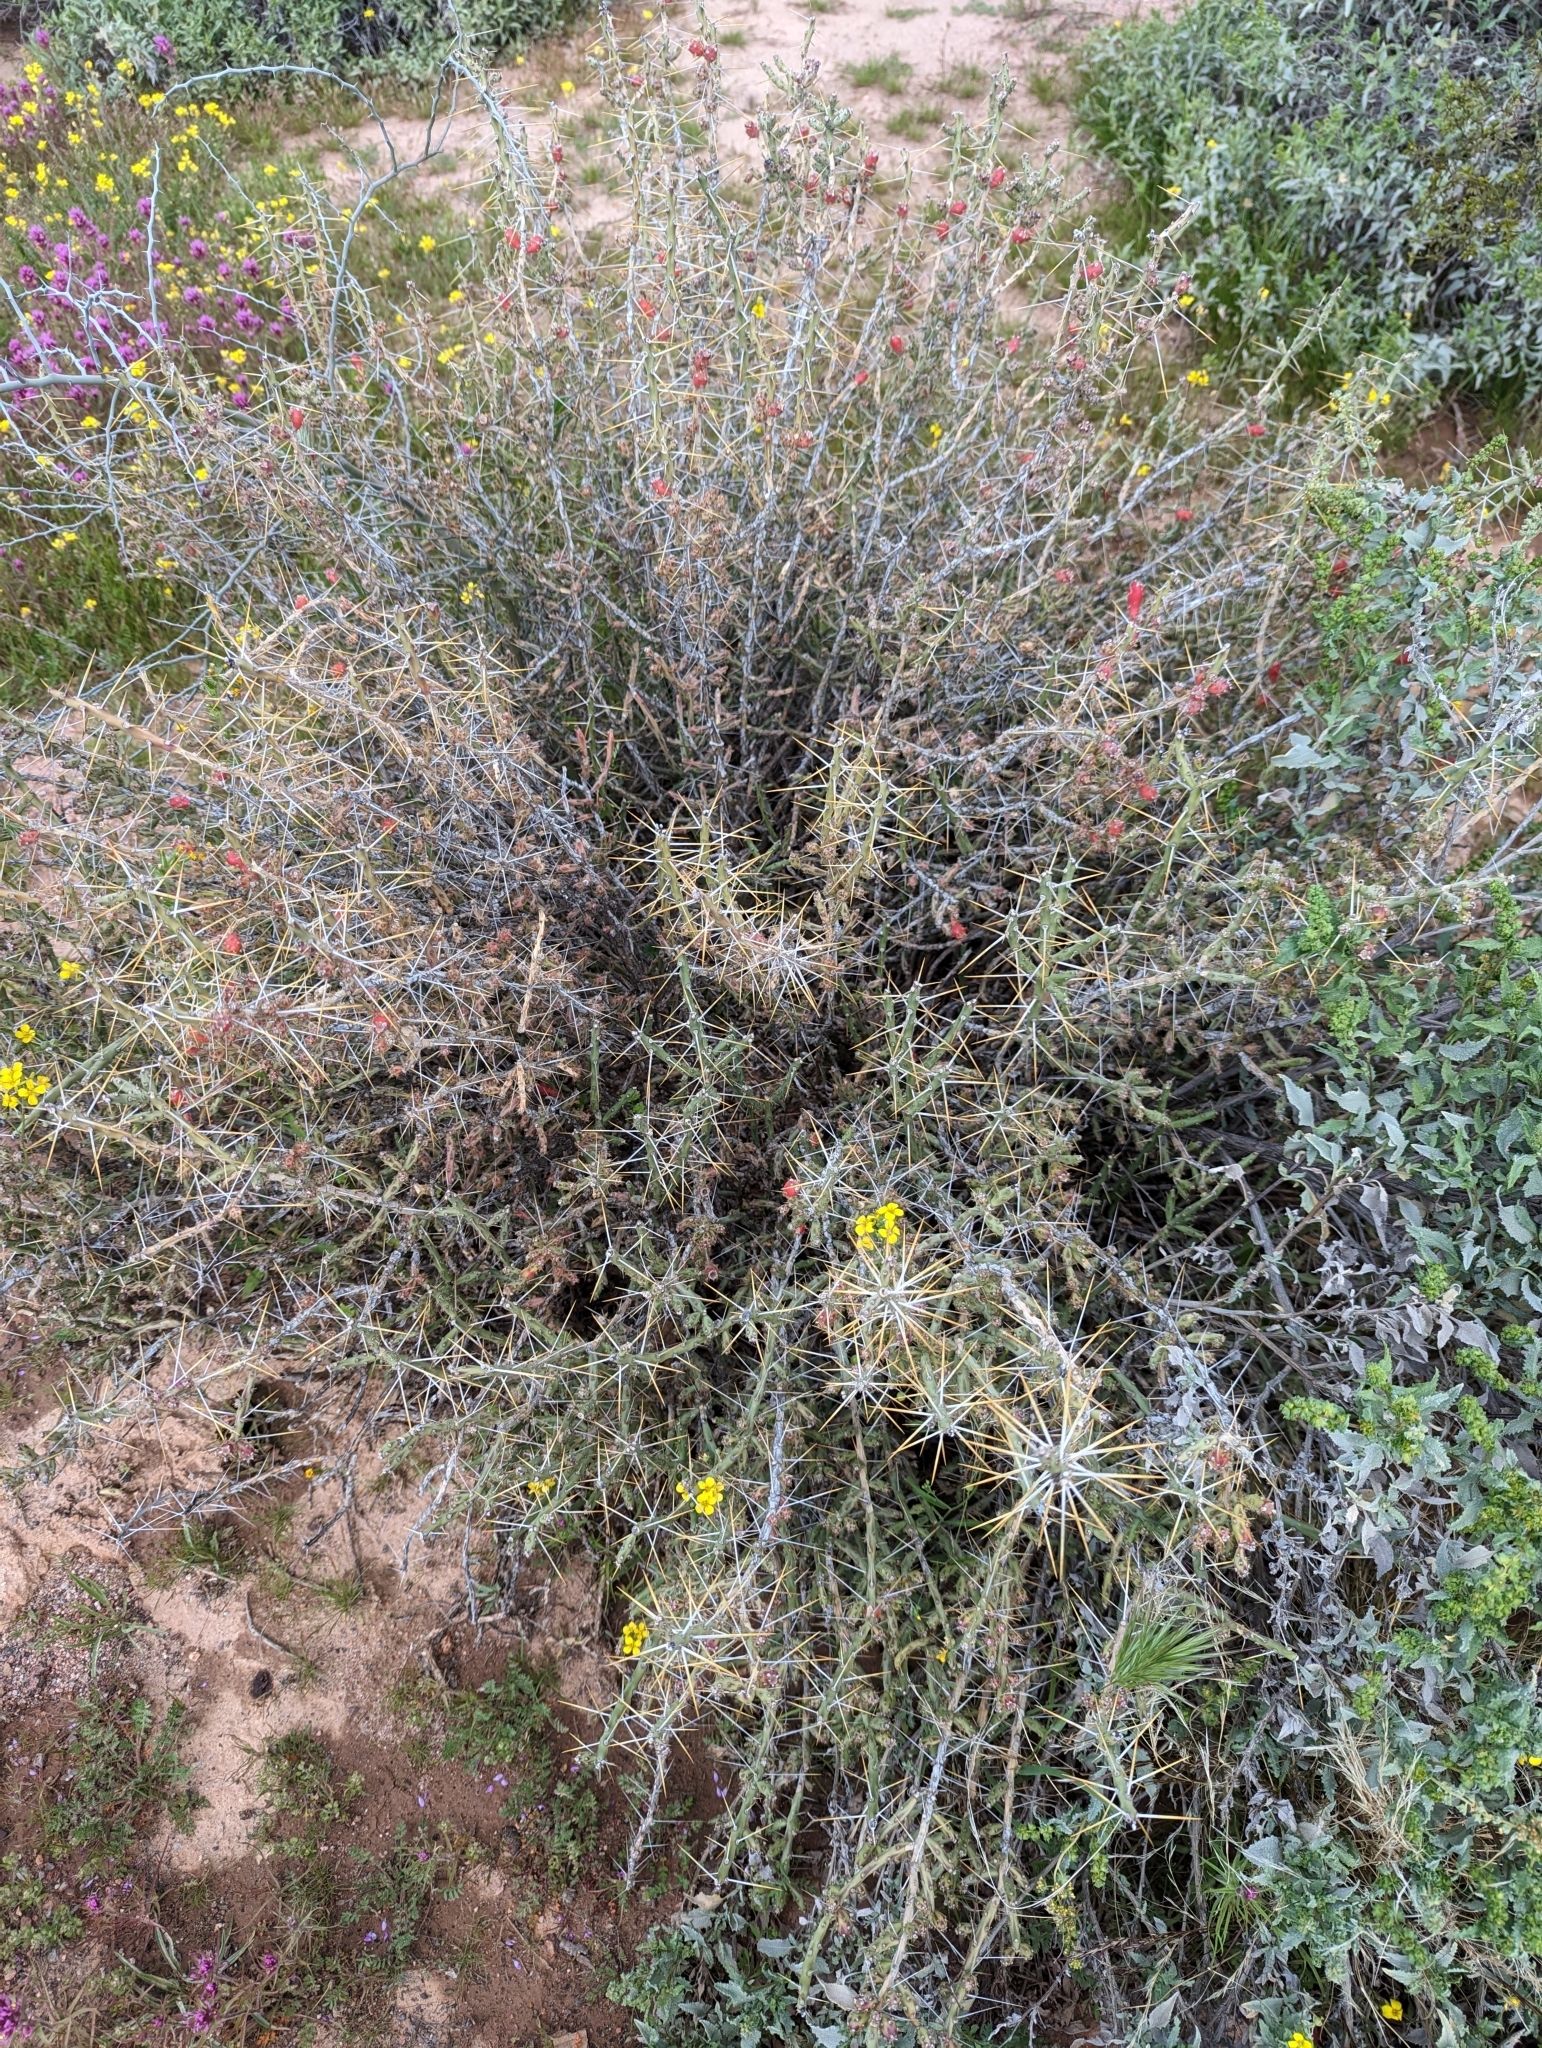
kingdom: Plantae
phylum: Tracheophyta
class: Magnoliopsida
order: Caryophyllales
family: Cactaceae
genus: Cylindropuntia
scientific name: Cylindropuntia leptocaulis
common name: Christmas cactus
